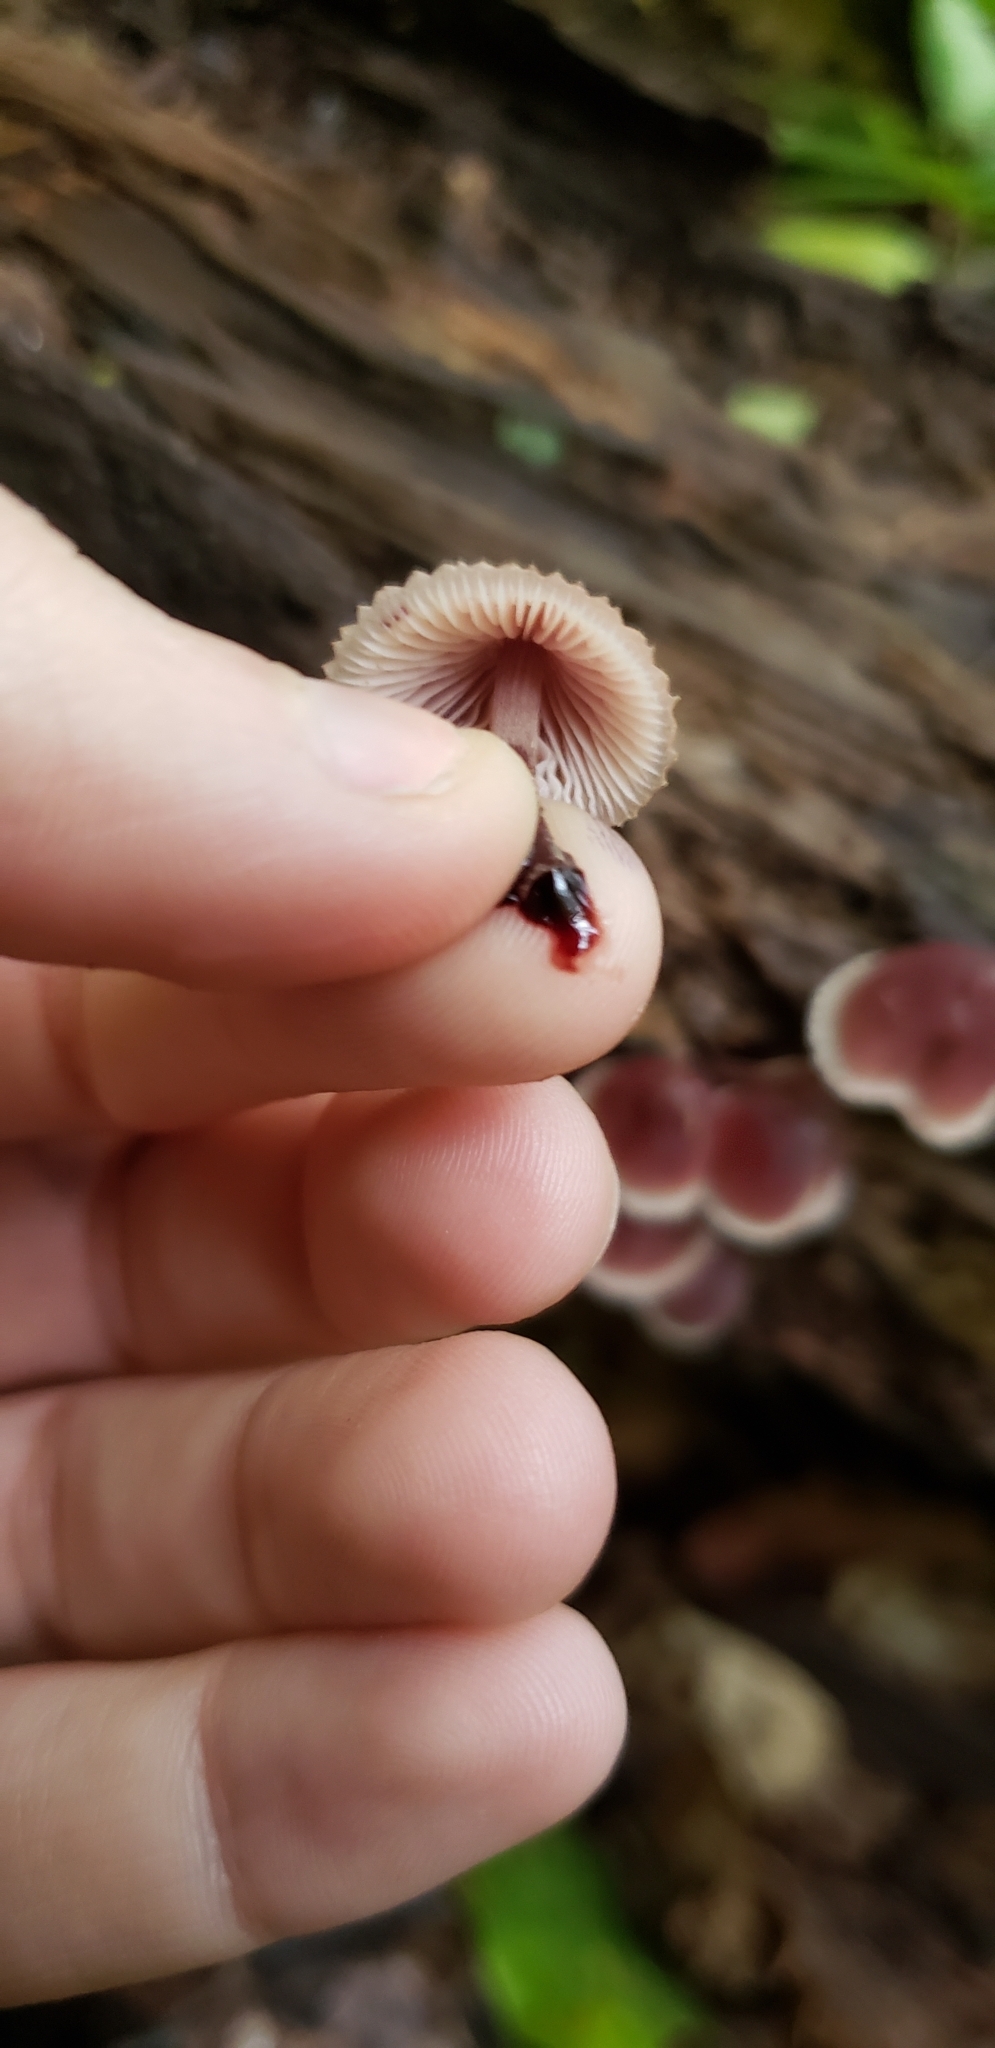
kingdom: Fungi
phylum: Basidiomycota
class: Agaricomycetes
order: Agaricales
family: Mycenaceae
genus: Mycena
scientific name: Mycena haematopus
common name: Burgundydrop bonnet
